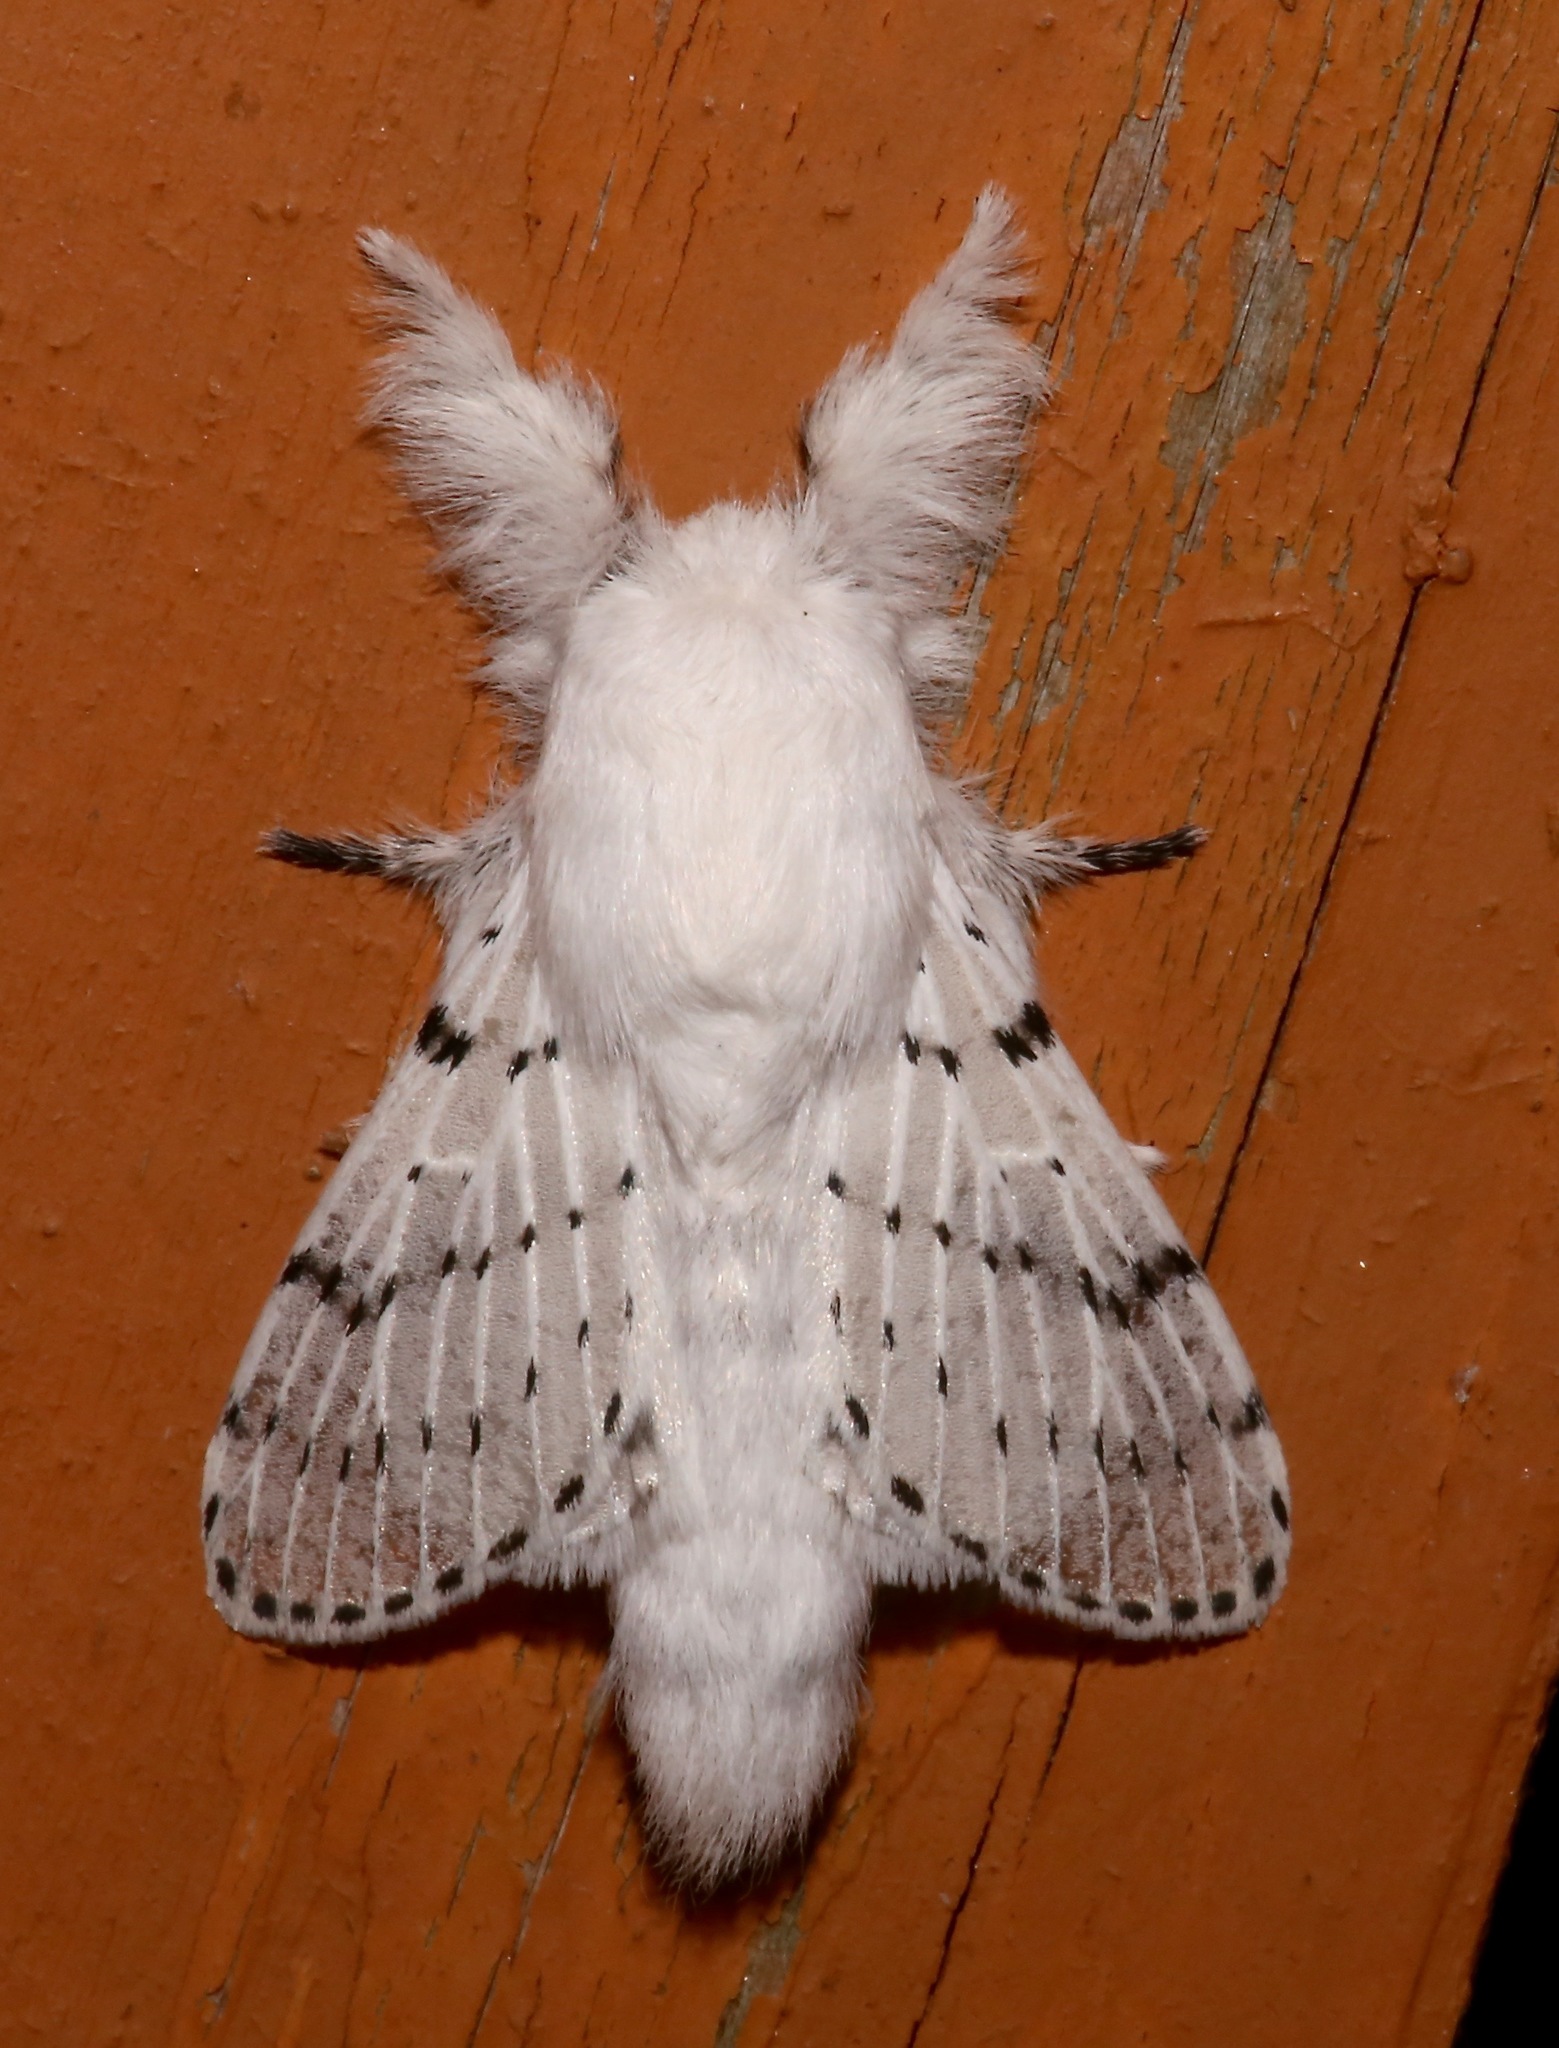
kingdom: Animalia
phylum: Arthropoda
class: Insecta
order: Lepidoptera
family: Lasiocampidae
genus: Artace
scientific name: Artace cribrarius
